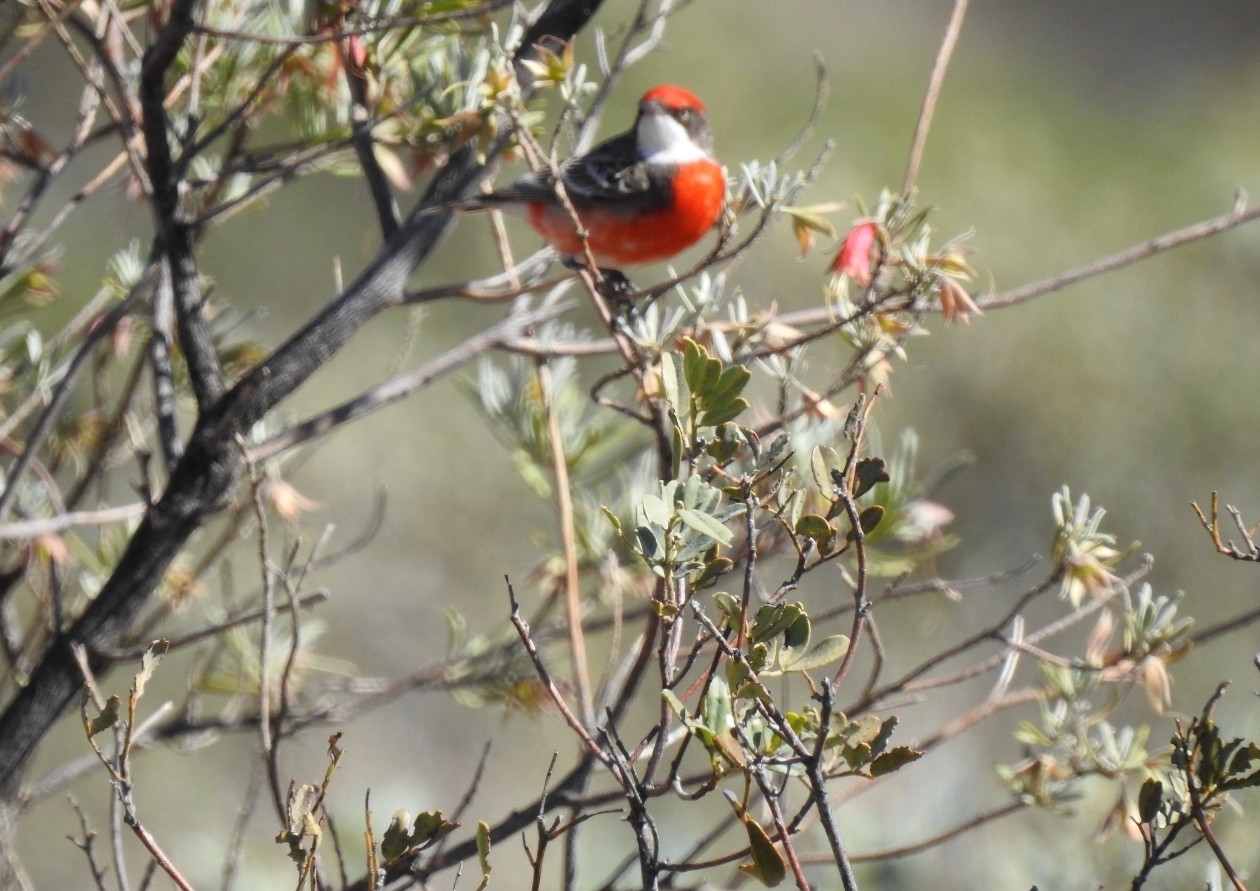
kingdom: Animalia
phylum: Chordata
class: Aves
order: Passeriformes
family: Meliphagidae
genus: Epthianura
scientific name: Epthianura tricolor
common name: Crimson chat
